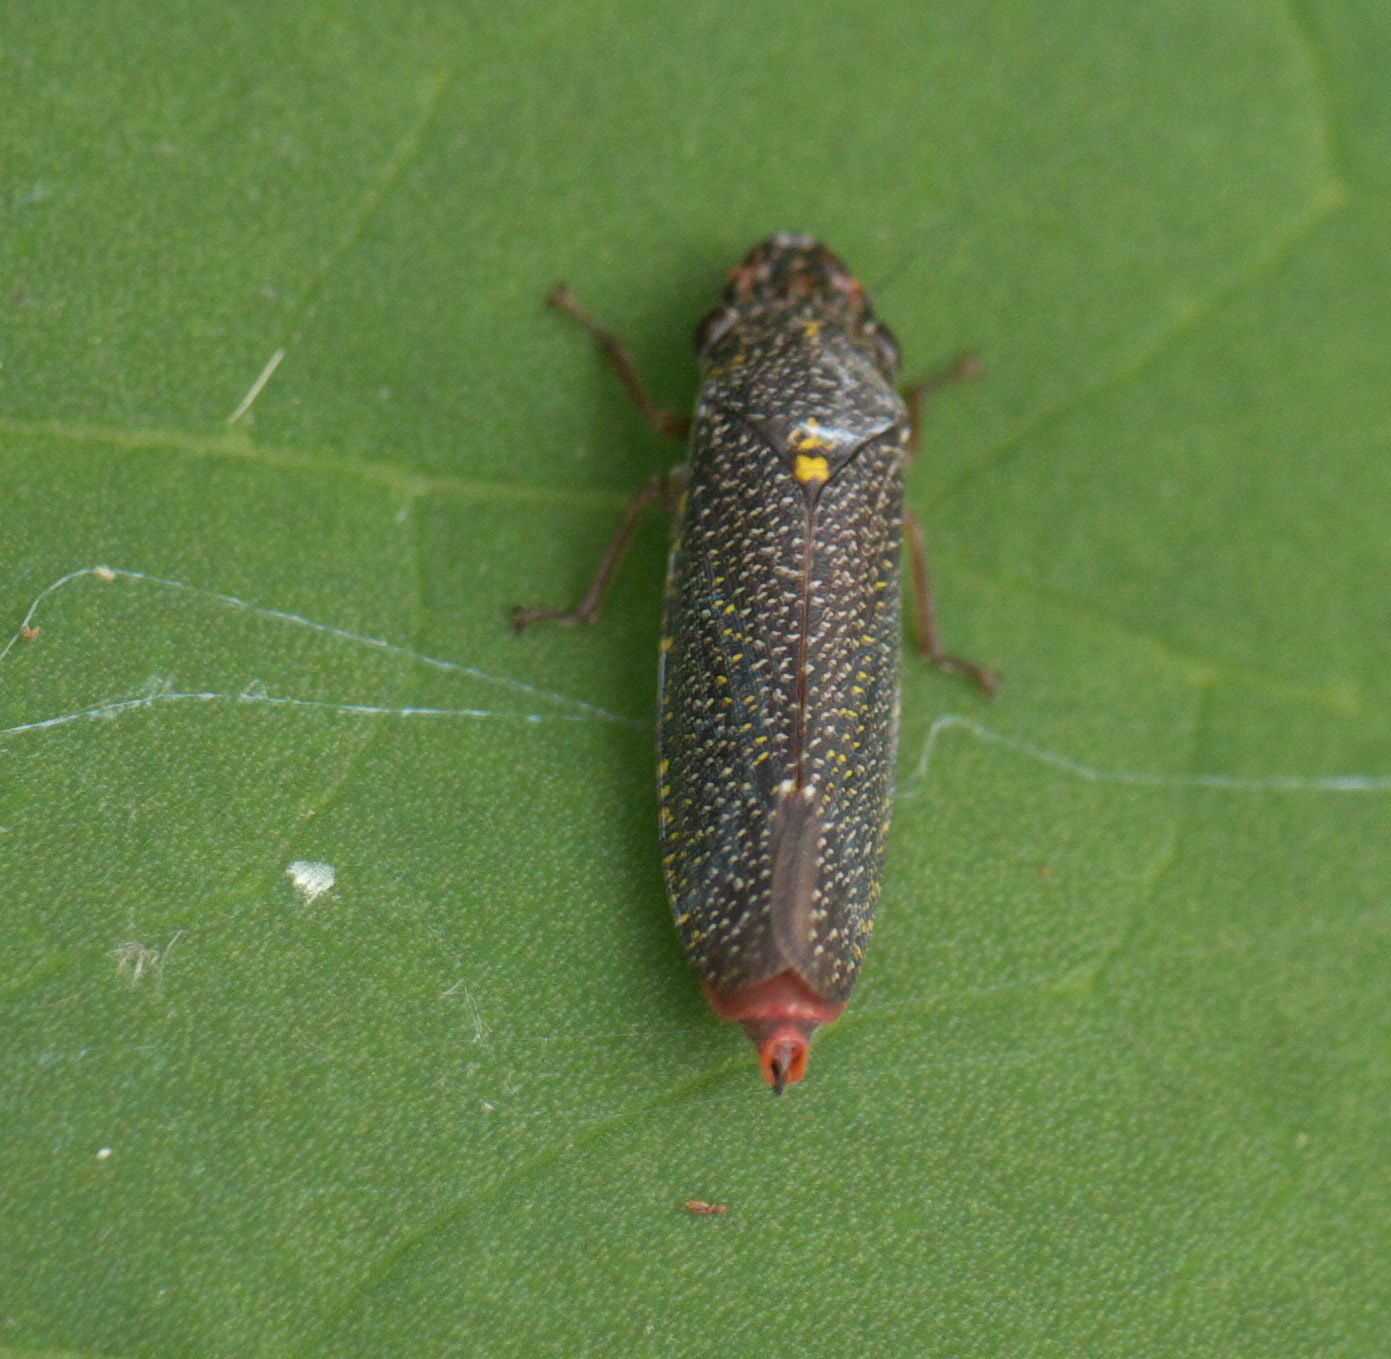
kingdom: Animalia
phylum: Arthropoda
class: Insecta
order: Hemiptera
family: Cicadellidae
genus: Paraulacizes
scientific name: Paraulacizes irrorata
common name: Speckled sharpshooter
